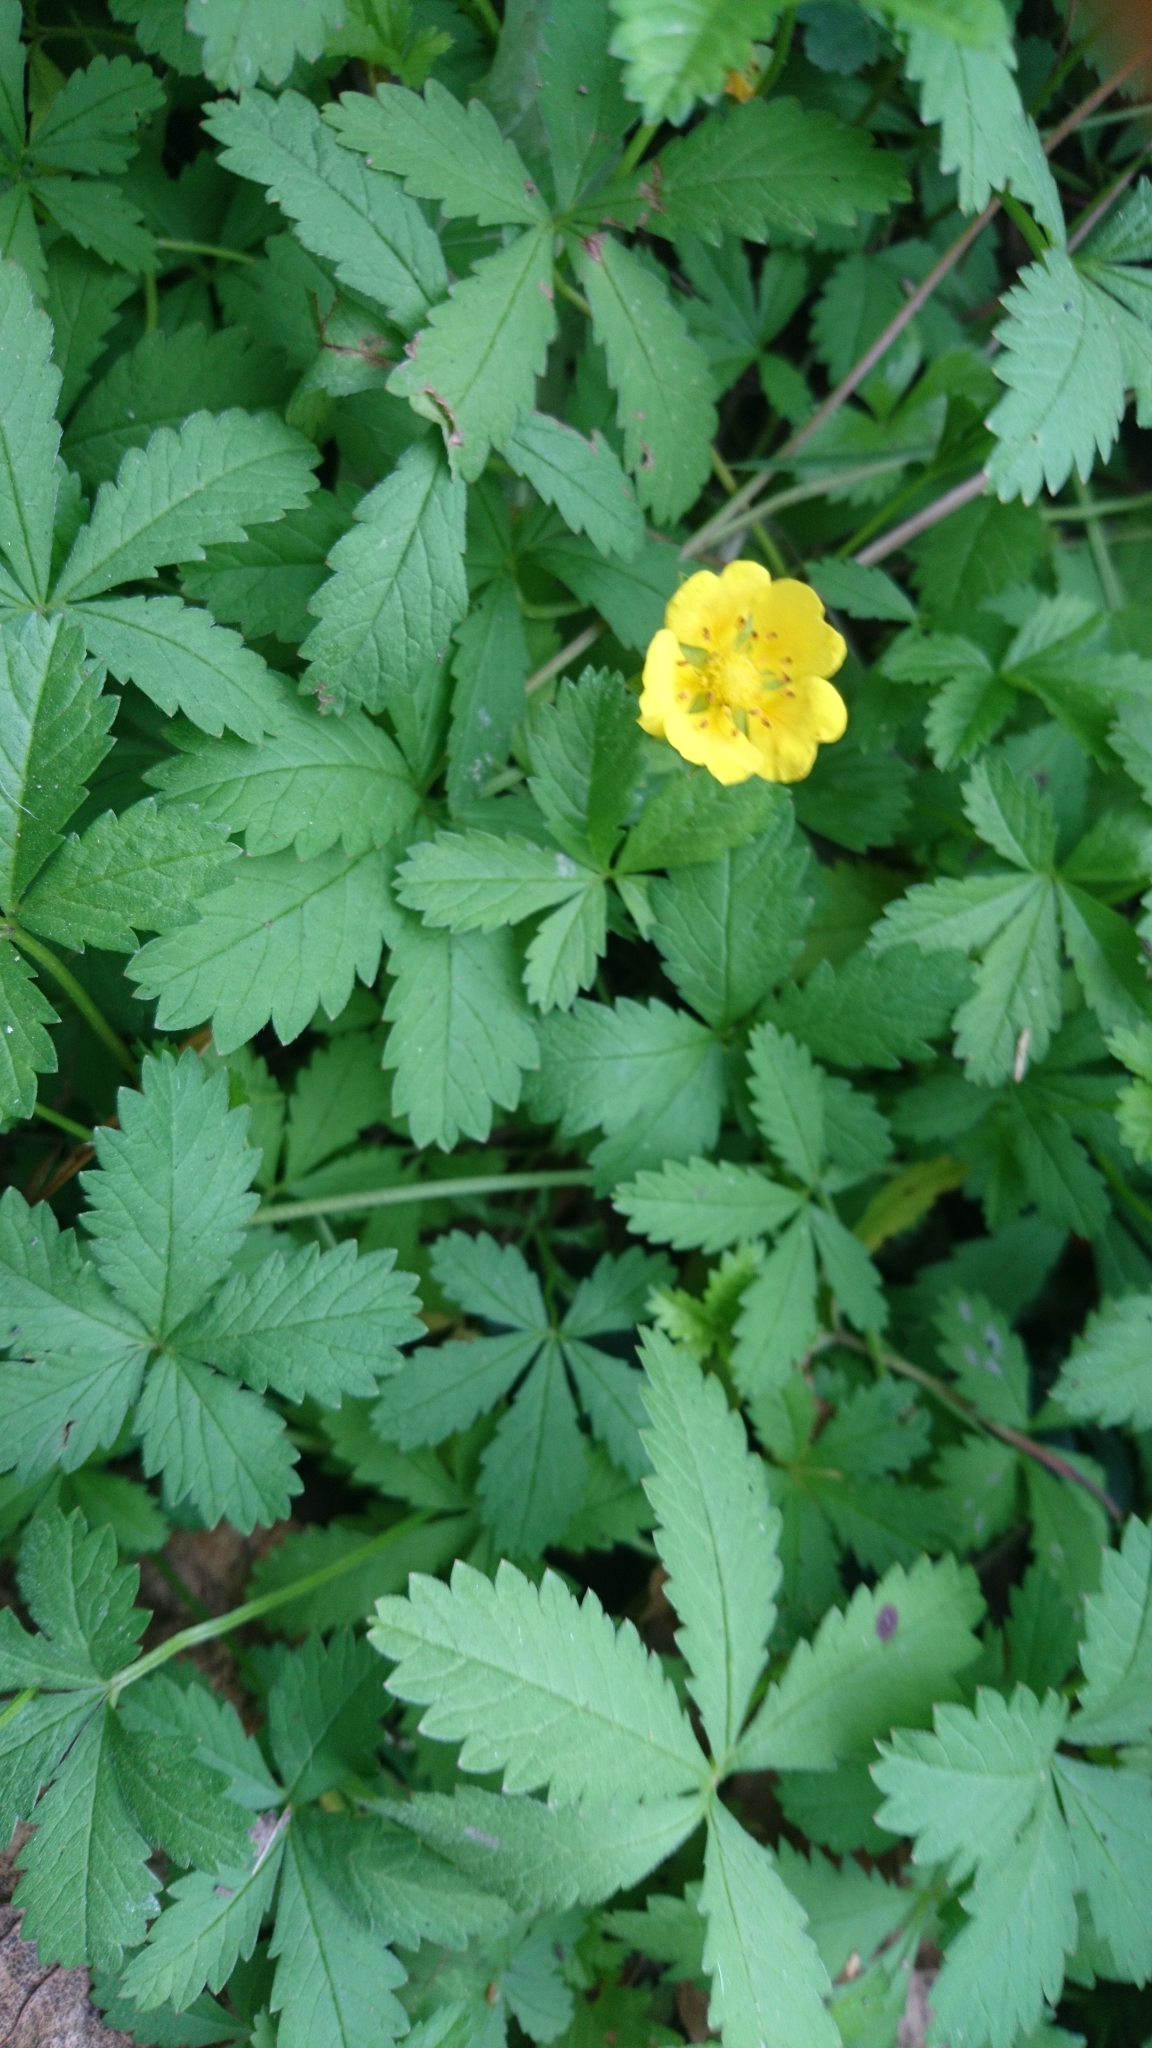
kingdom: Plantae
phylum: Tracheophyta
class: Magnoliopsida
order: Rosales
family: Rosaceae
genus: Potentilla
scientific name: Potentilla reptans
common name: Creeping cinquefoil
